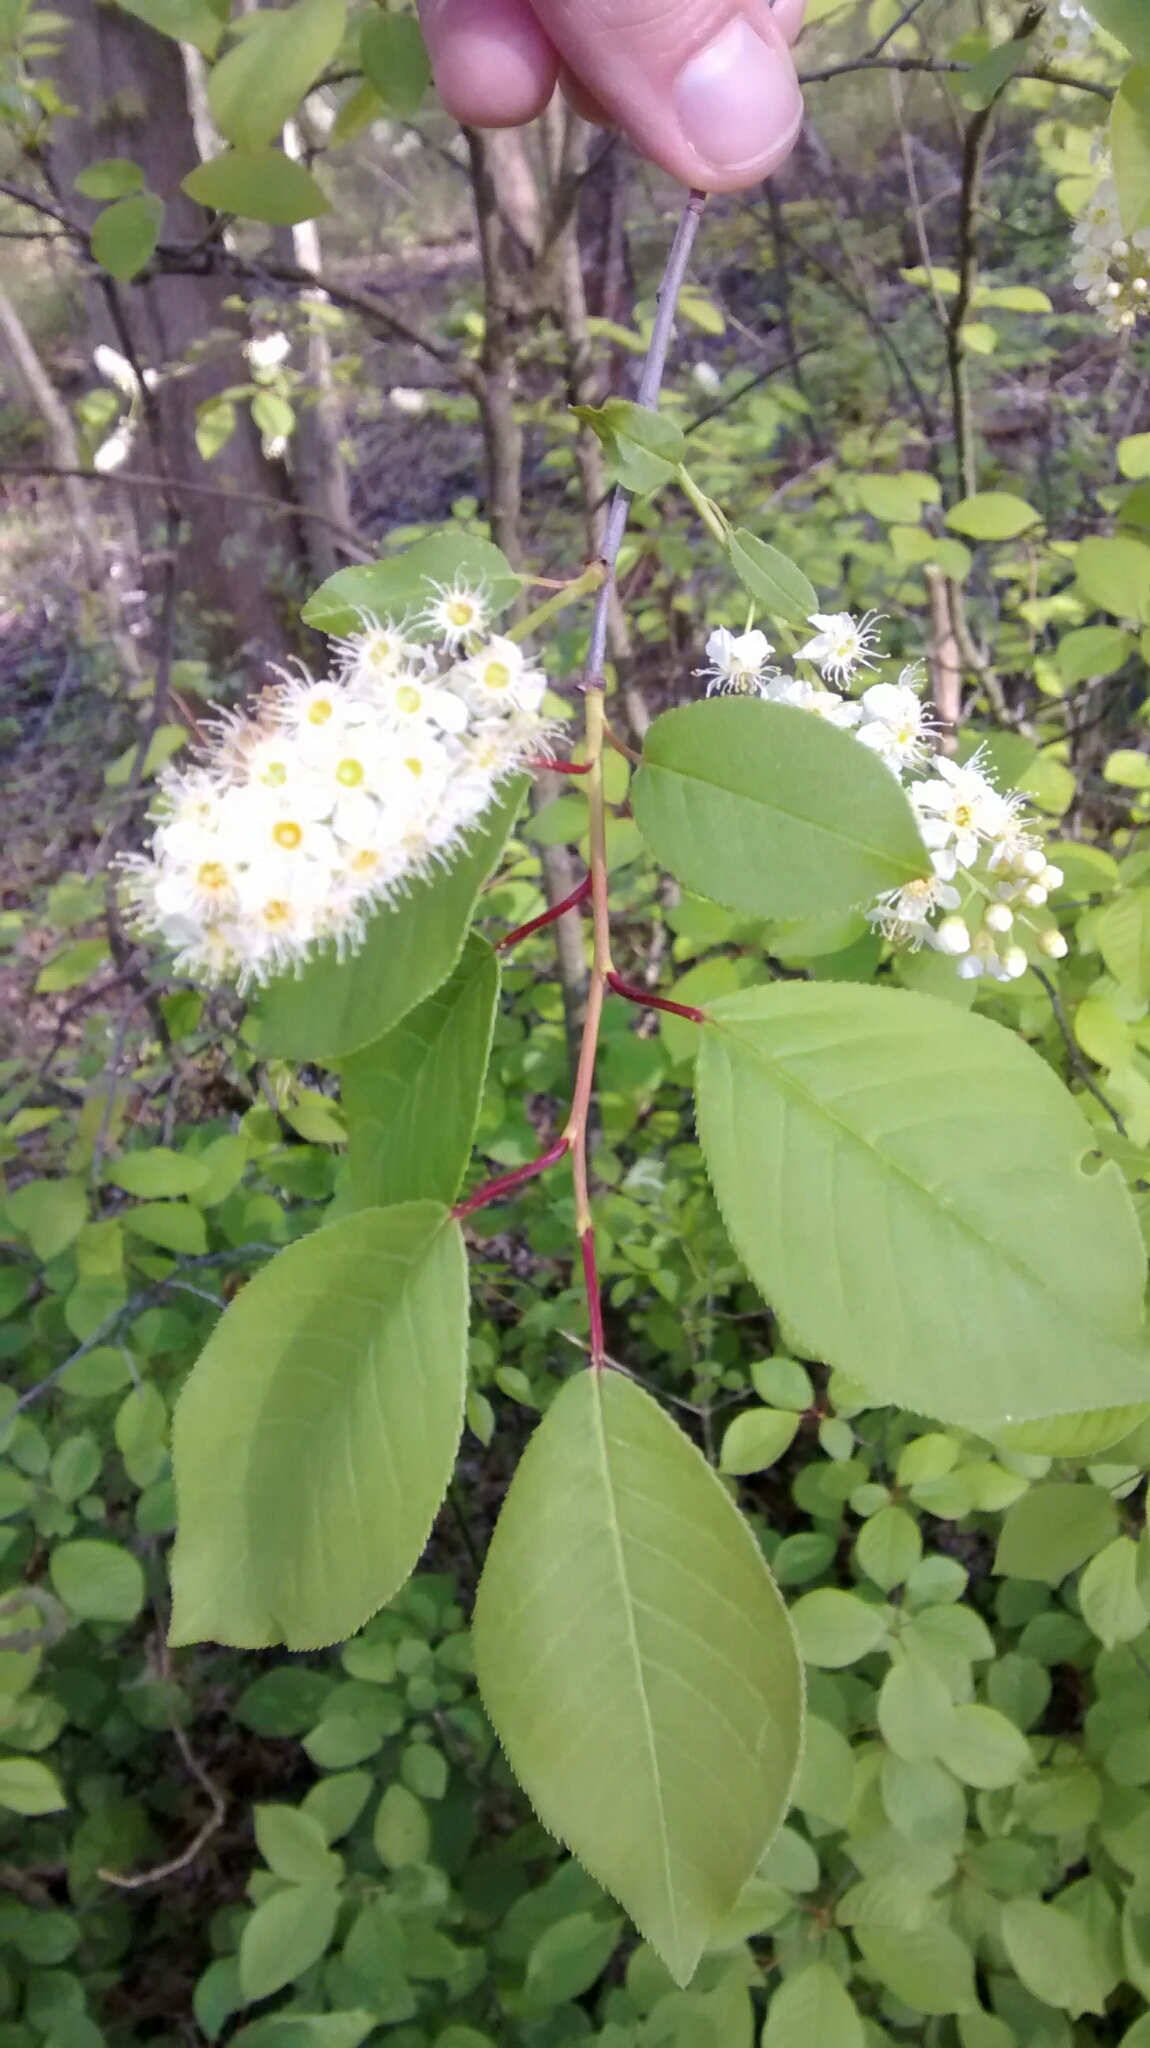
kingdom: Plantae
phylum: Tracheophyta
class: Magnoliopsida
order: Rosales
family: Rosaceae
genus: Prunus
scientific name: Prunus virginiana
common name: Chokecherry
